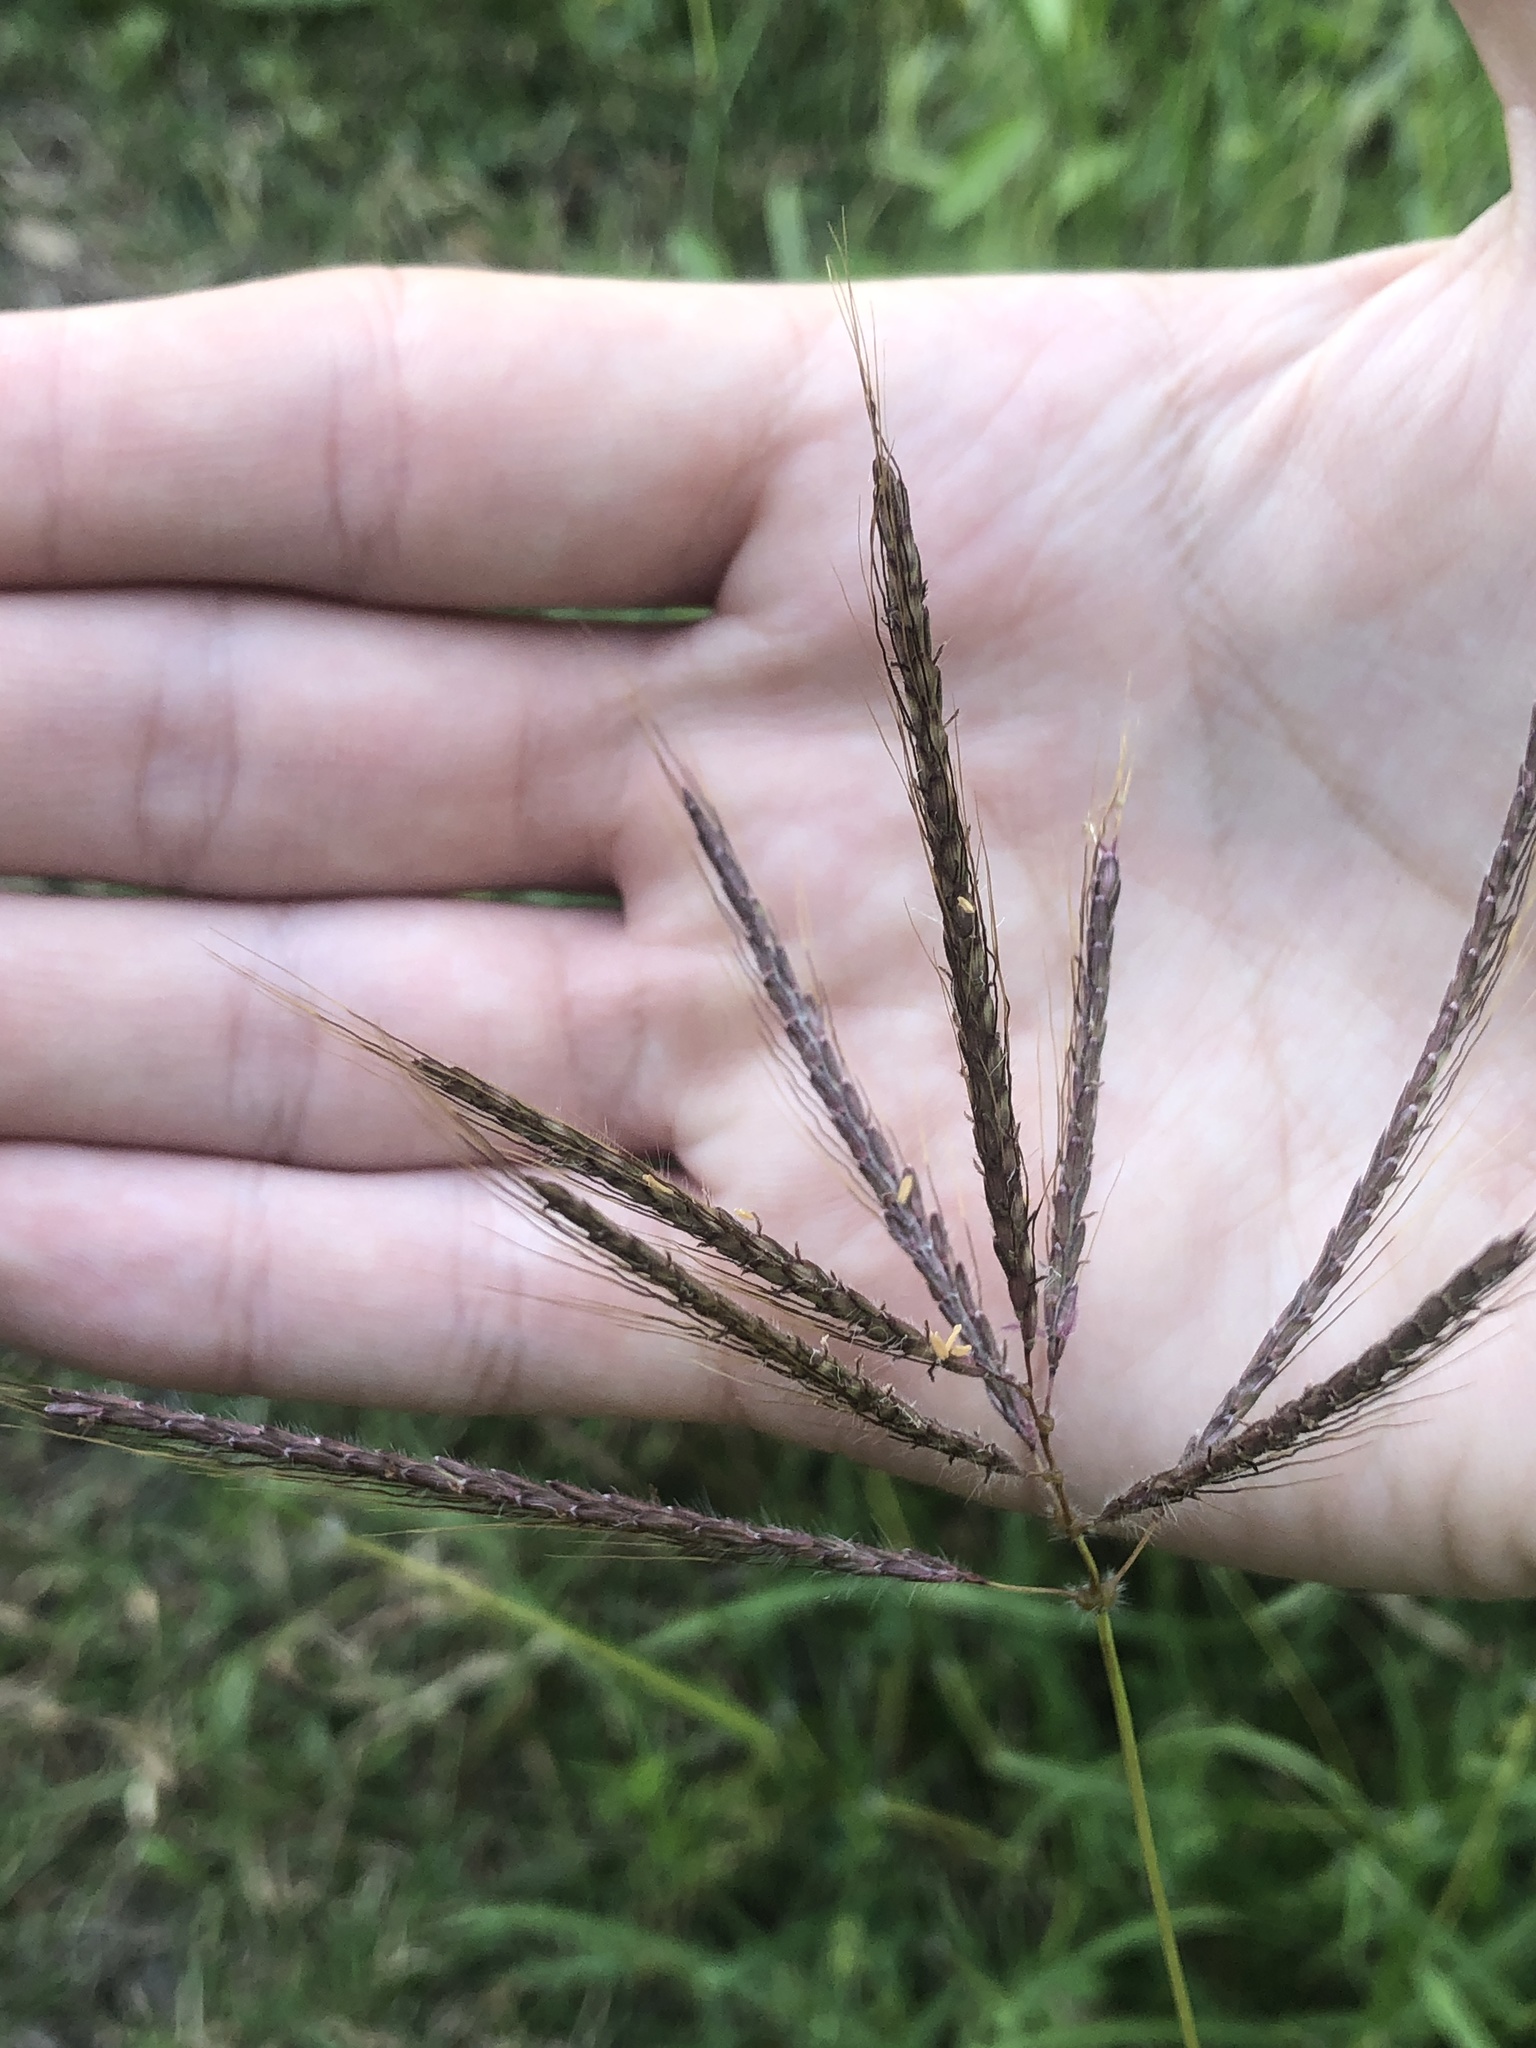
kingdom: Plantae
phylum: Tracheophyta
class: Liliopsida
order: Poales
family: Poaceae
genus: Dichanthium
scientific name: Dichanthium annulatum
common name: Kleberg's bluestem
